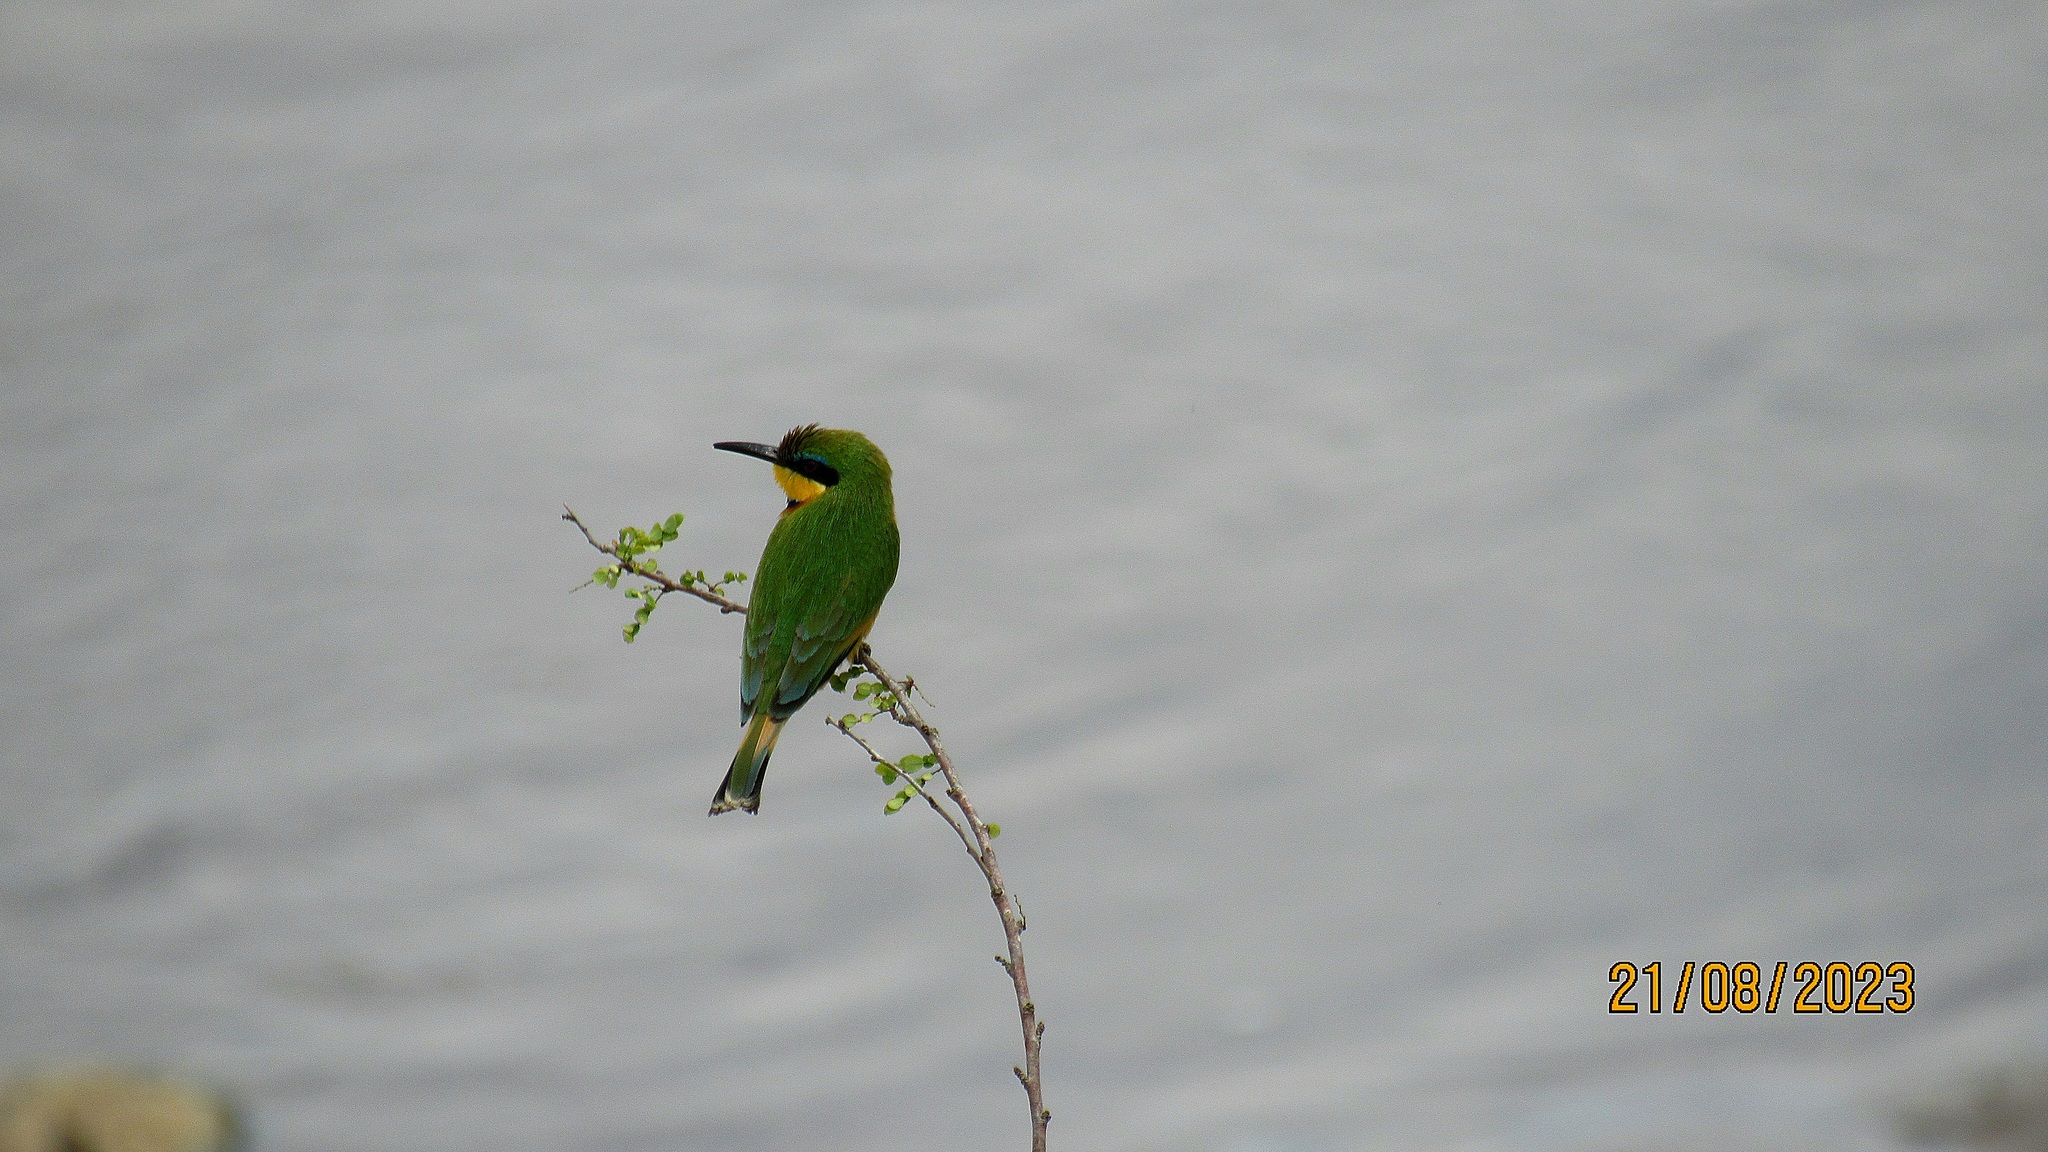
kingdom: Animalia
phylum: Chordata
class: Aves
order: Coraciiformes
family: Meropidae
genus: Merops
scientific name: Merops pusillus
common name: Little bee-eater
